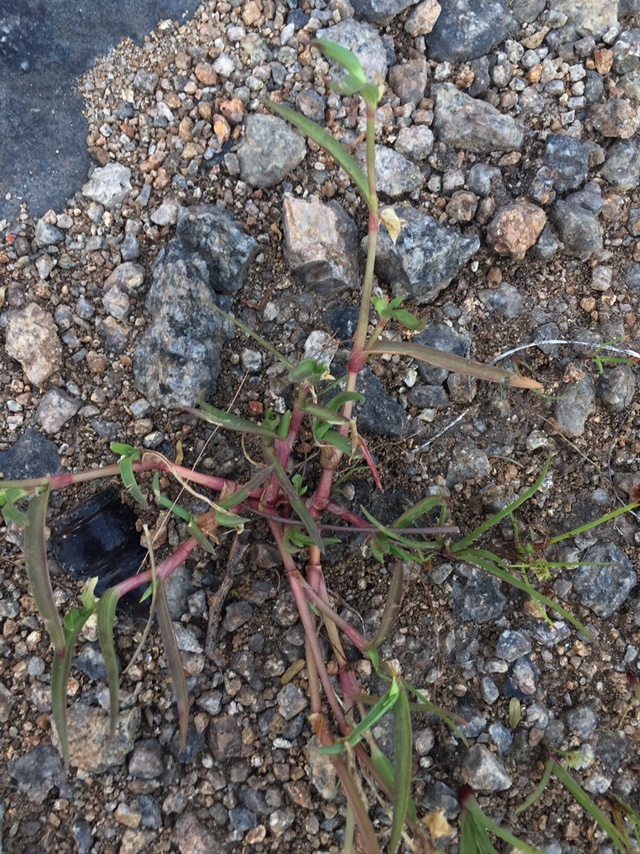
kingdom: Plantae
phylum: Tracheophyta
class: Liliopsida
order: Commelinales
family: Commelinaceae
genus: Commelina
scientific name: Commelina ensifolia
